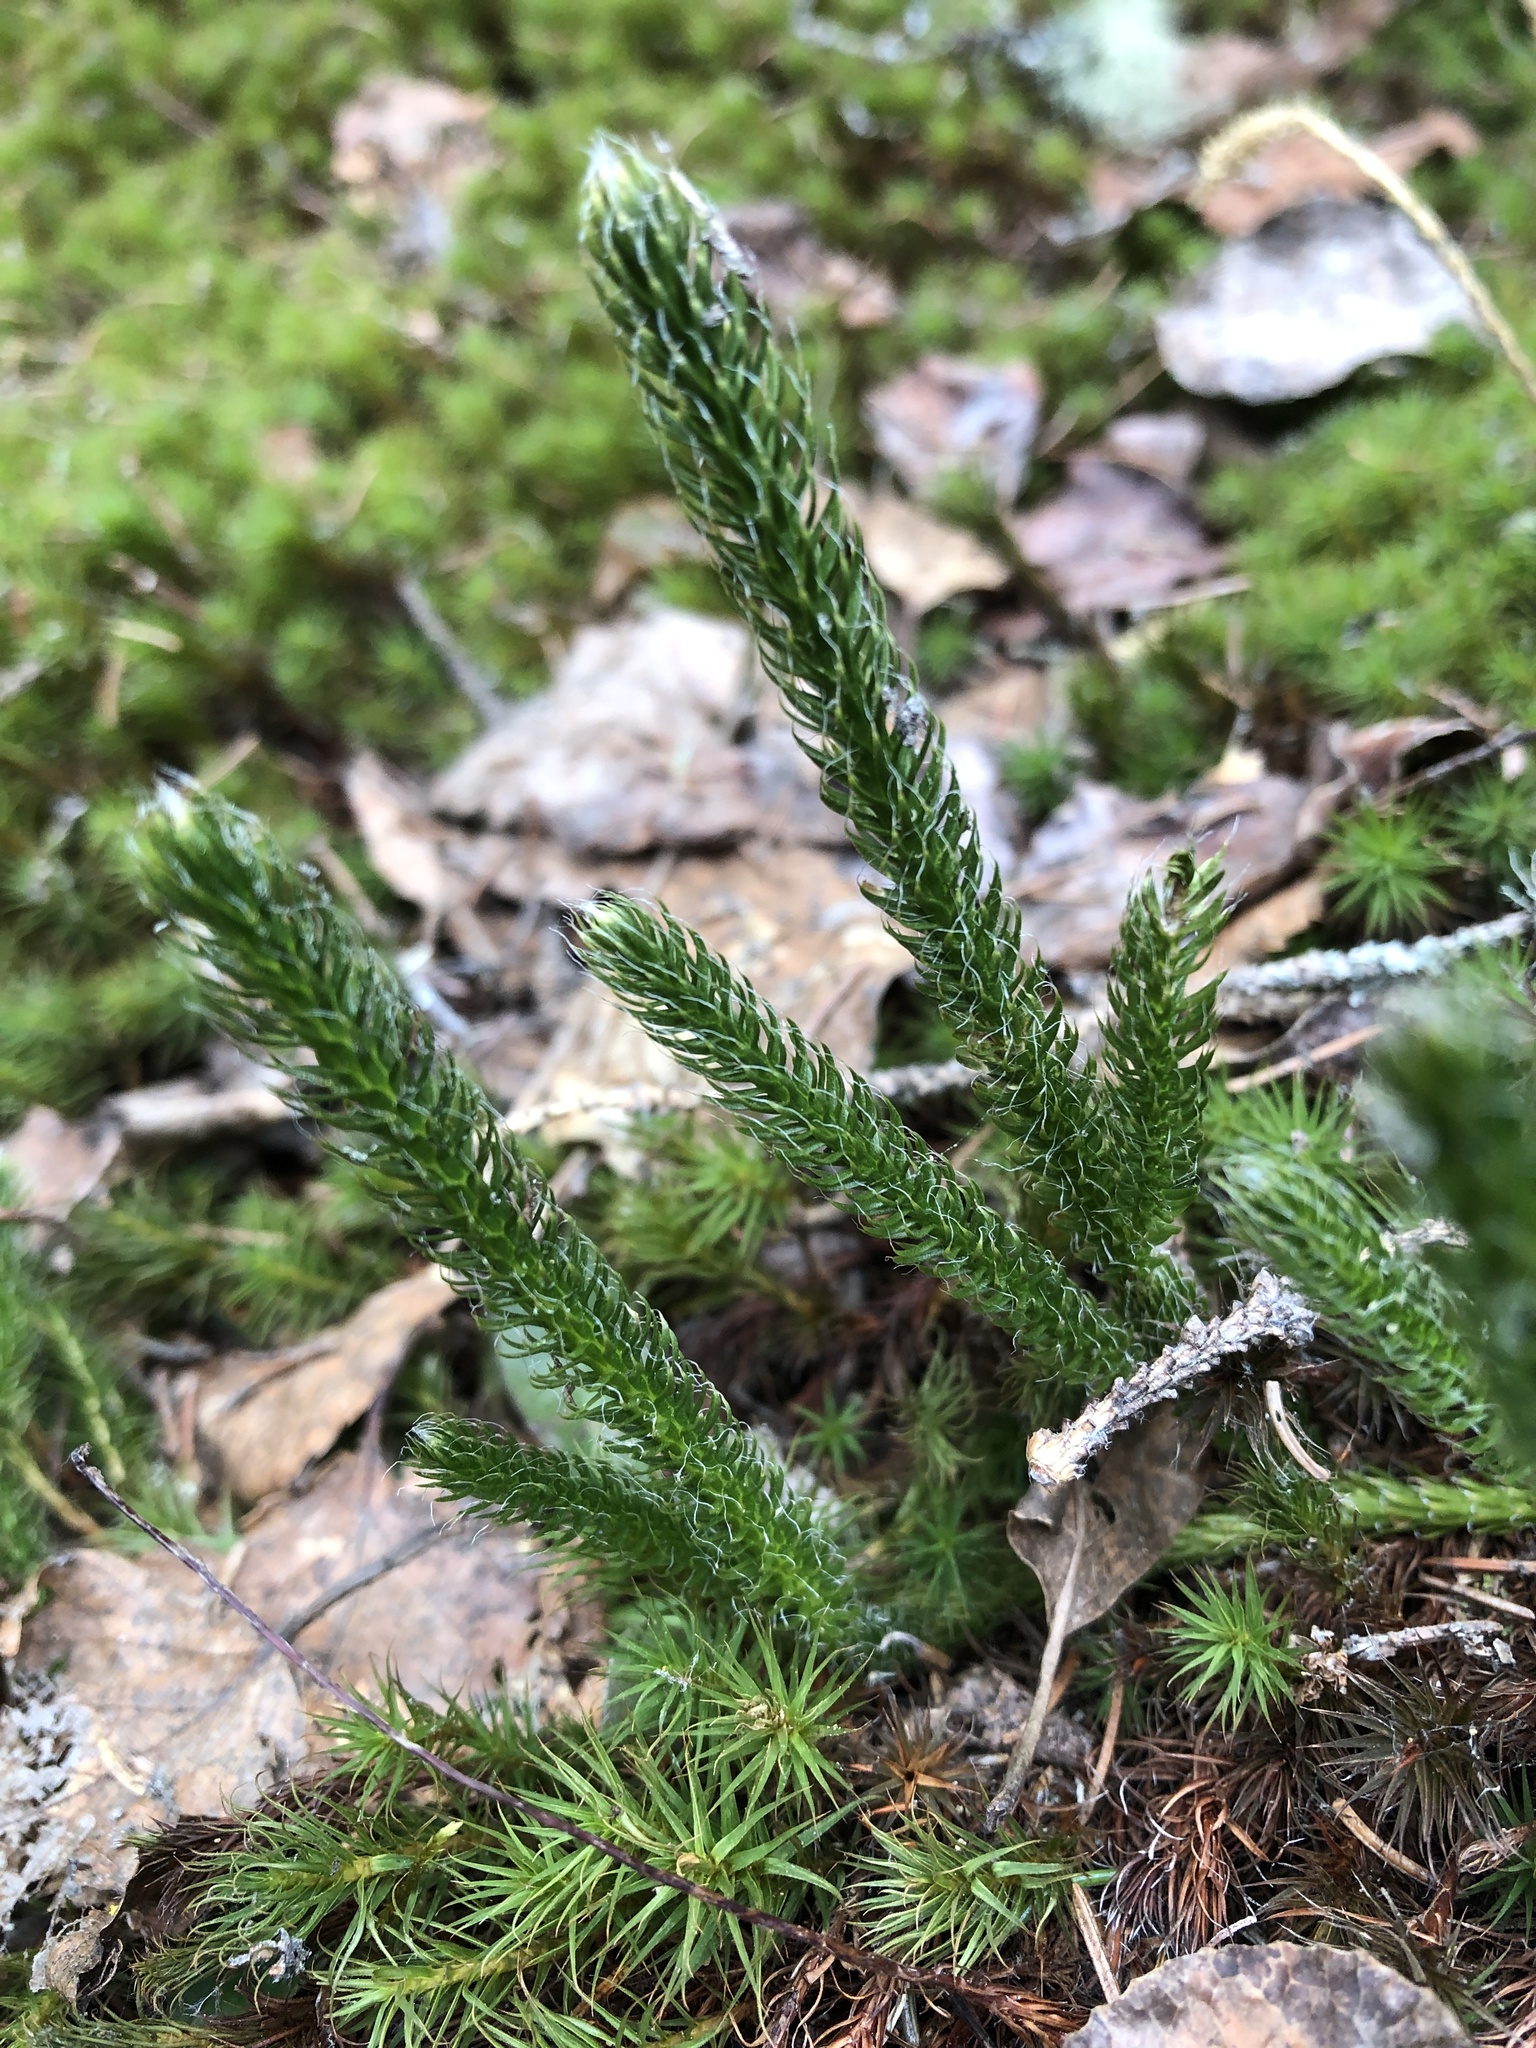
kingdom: Plantae
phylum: Tracheophyta
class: Lycopodiopsida
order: Lycopodiales
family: Lycopodiaceae
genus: Lycopodium
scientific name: Lycopodium clavatum
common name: Stag's-horn clubmoss
